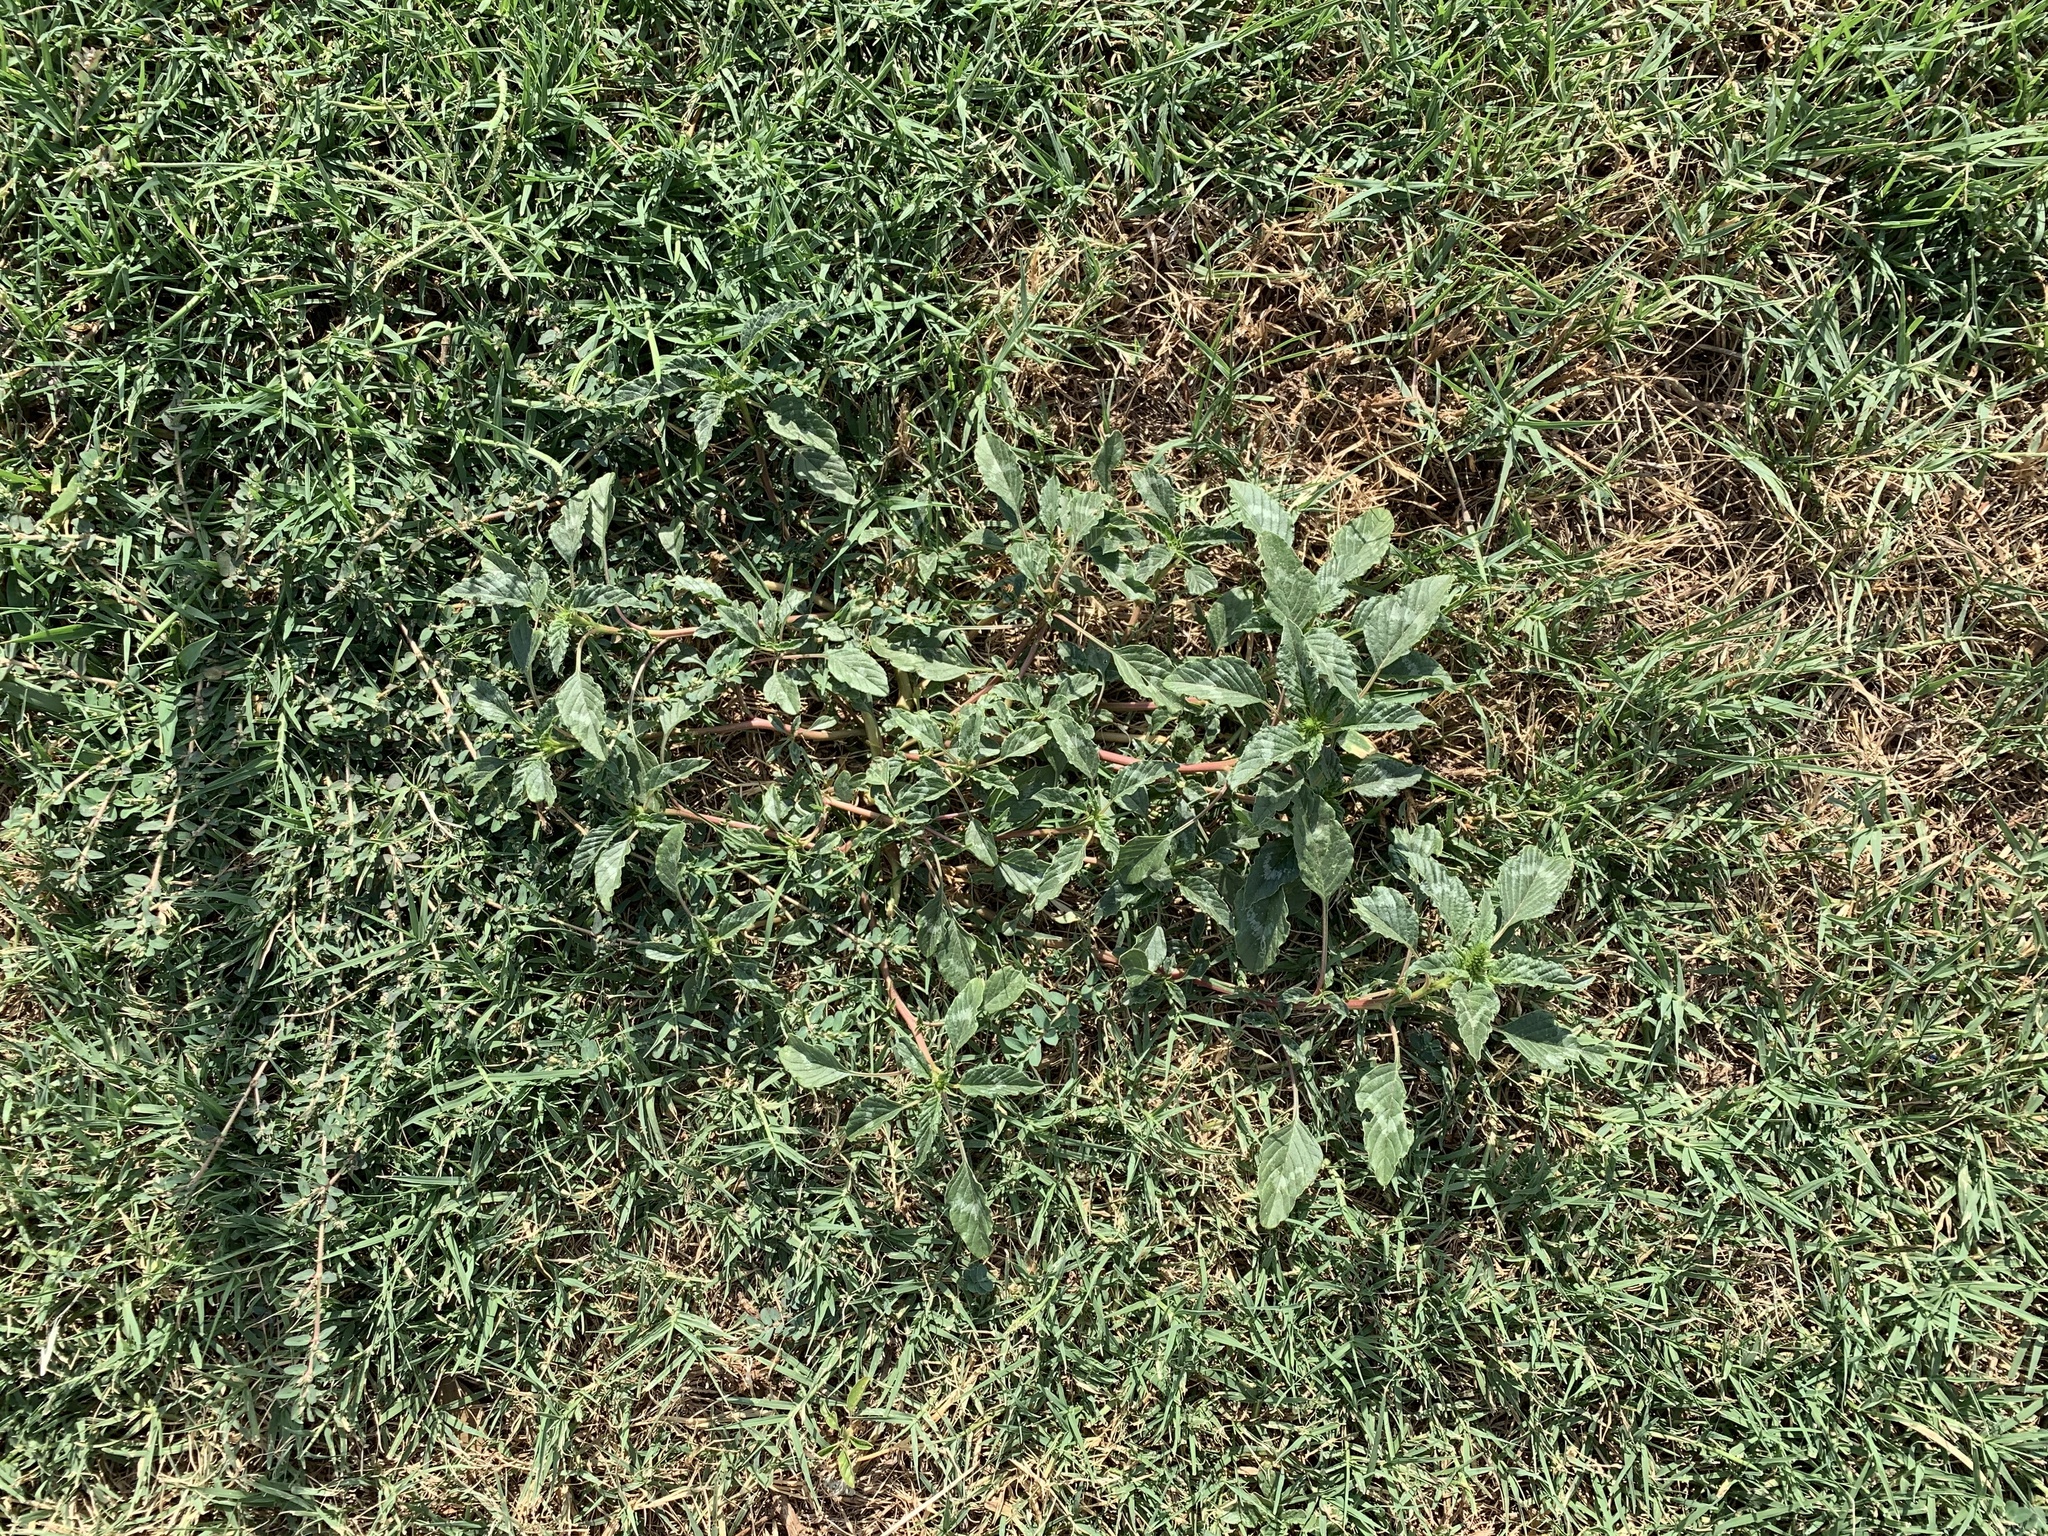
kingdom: Plantae
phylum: Tracheophyta
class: Magnoliopsida
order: Caryophyllales
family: Amaranthaceae
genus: Amaranthus
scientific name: Amaranthus palmeri
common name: Dioecious amaranth
